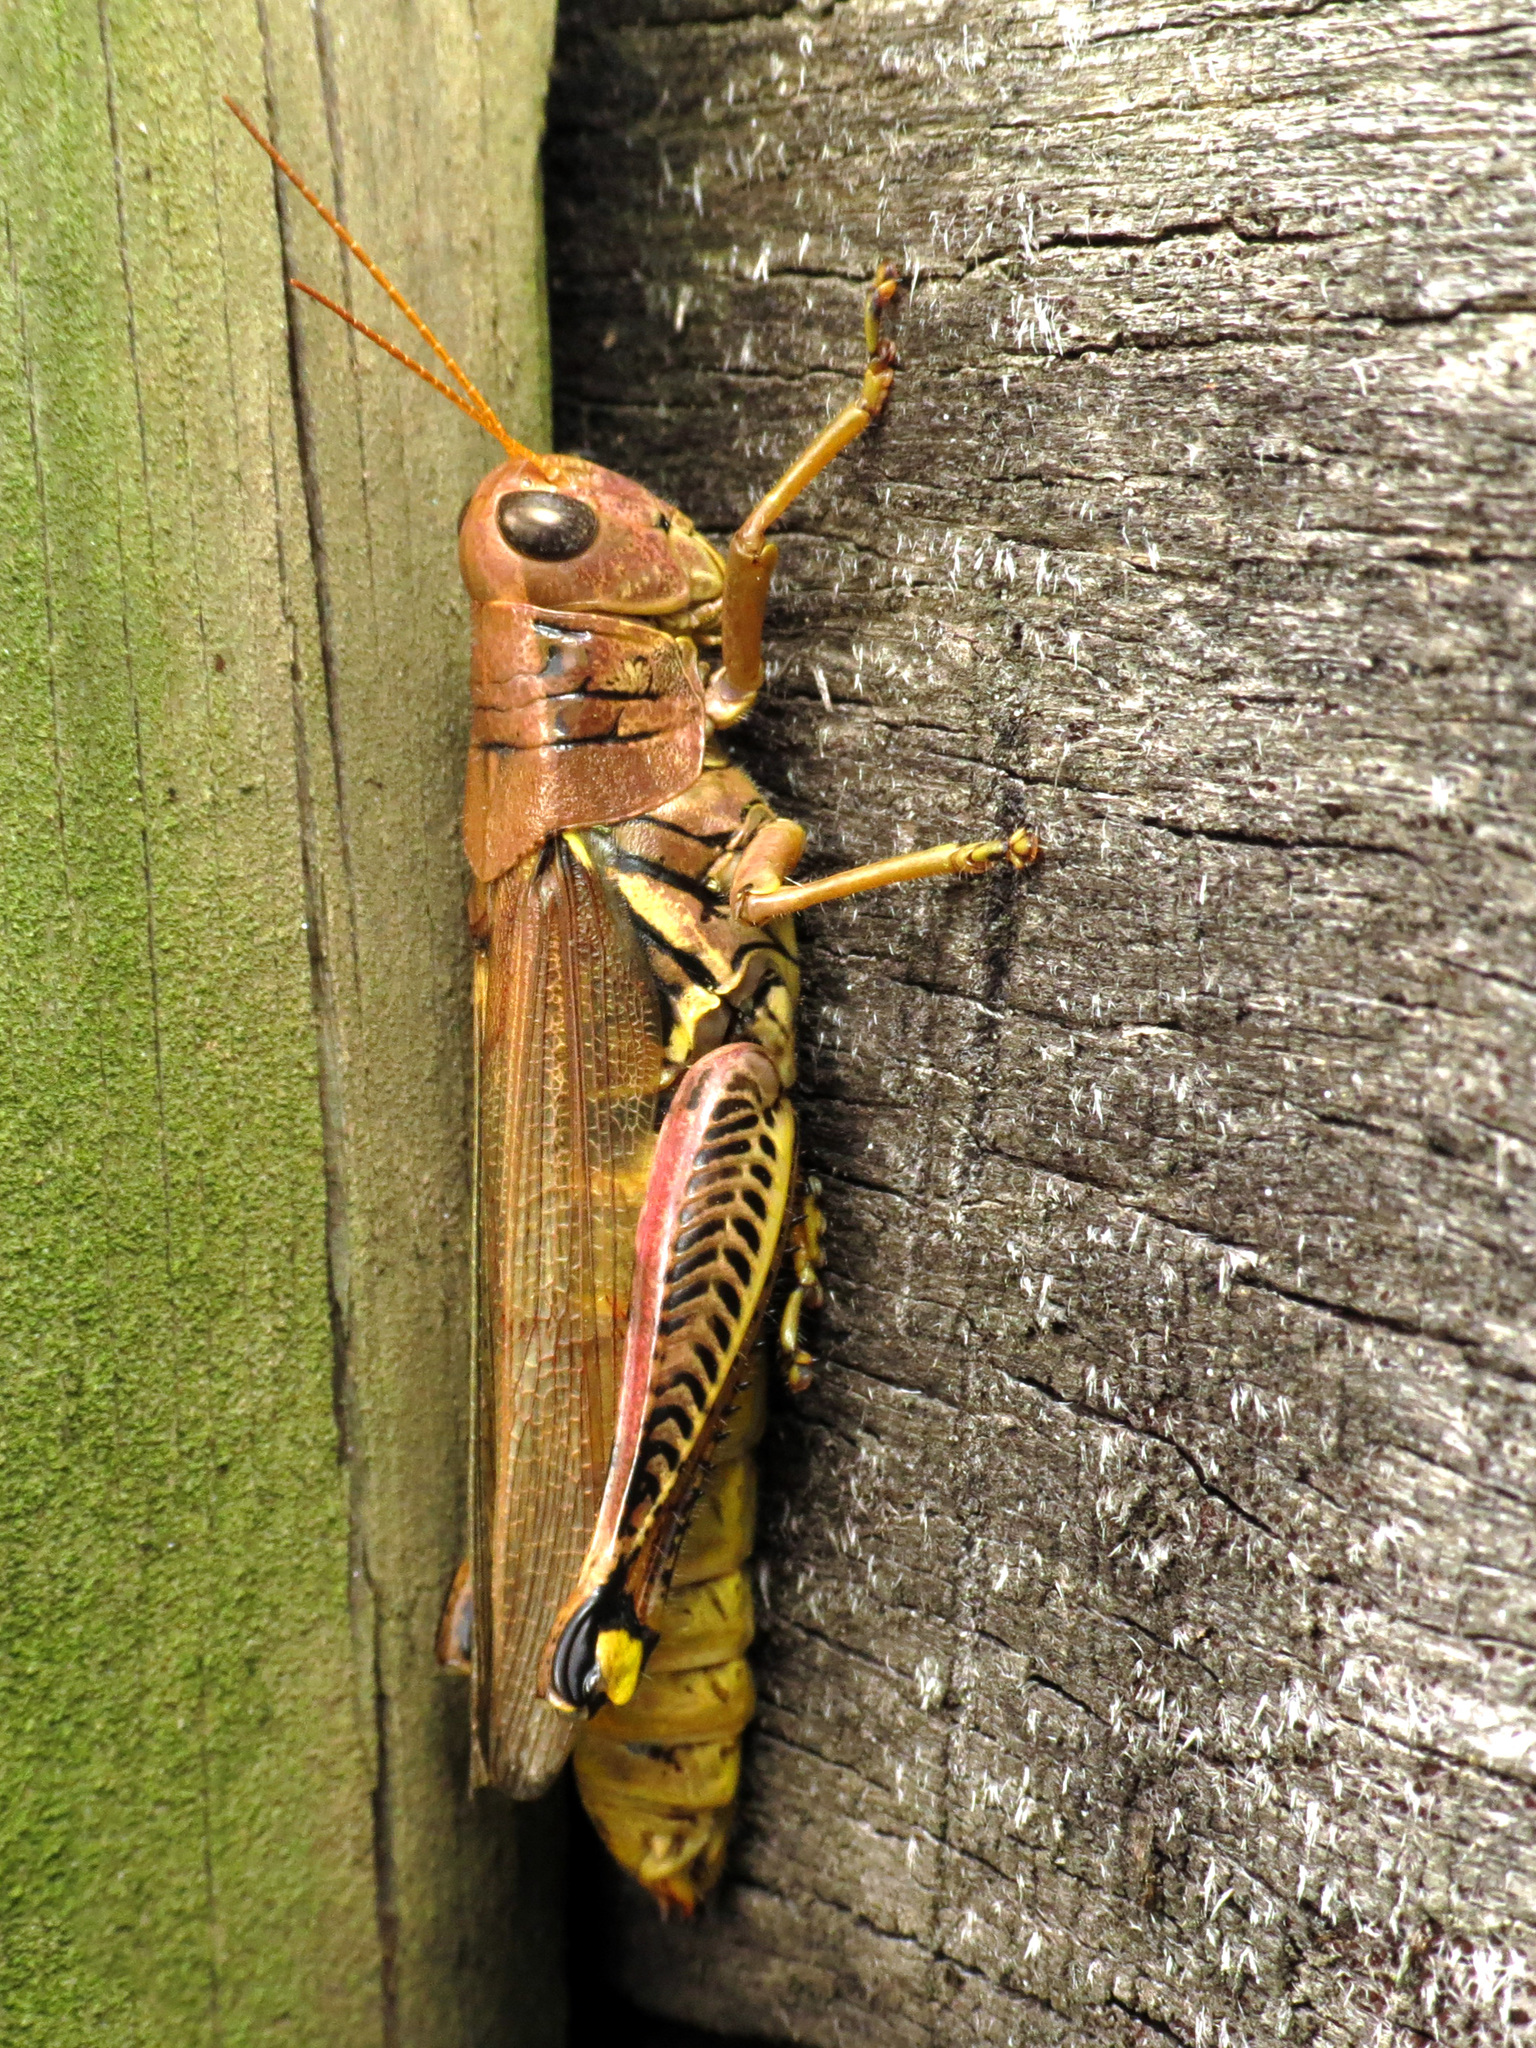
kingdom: Animalia
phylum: Arthropoda
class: Insecta
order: Orthoptera
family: Acrididae
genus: Melanoplus
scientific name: Melanoplus differentialis
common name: Differential grasshopper
